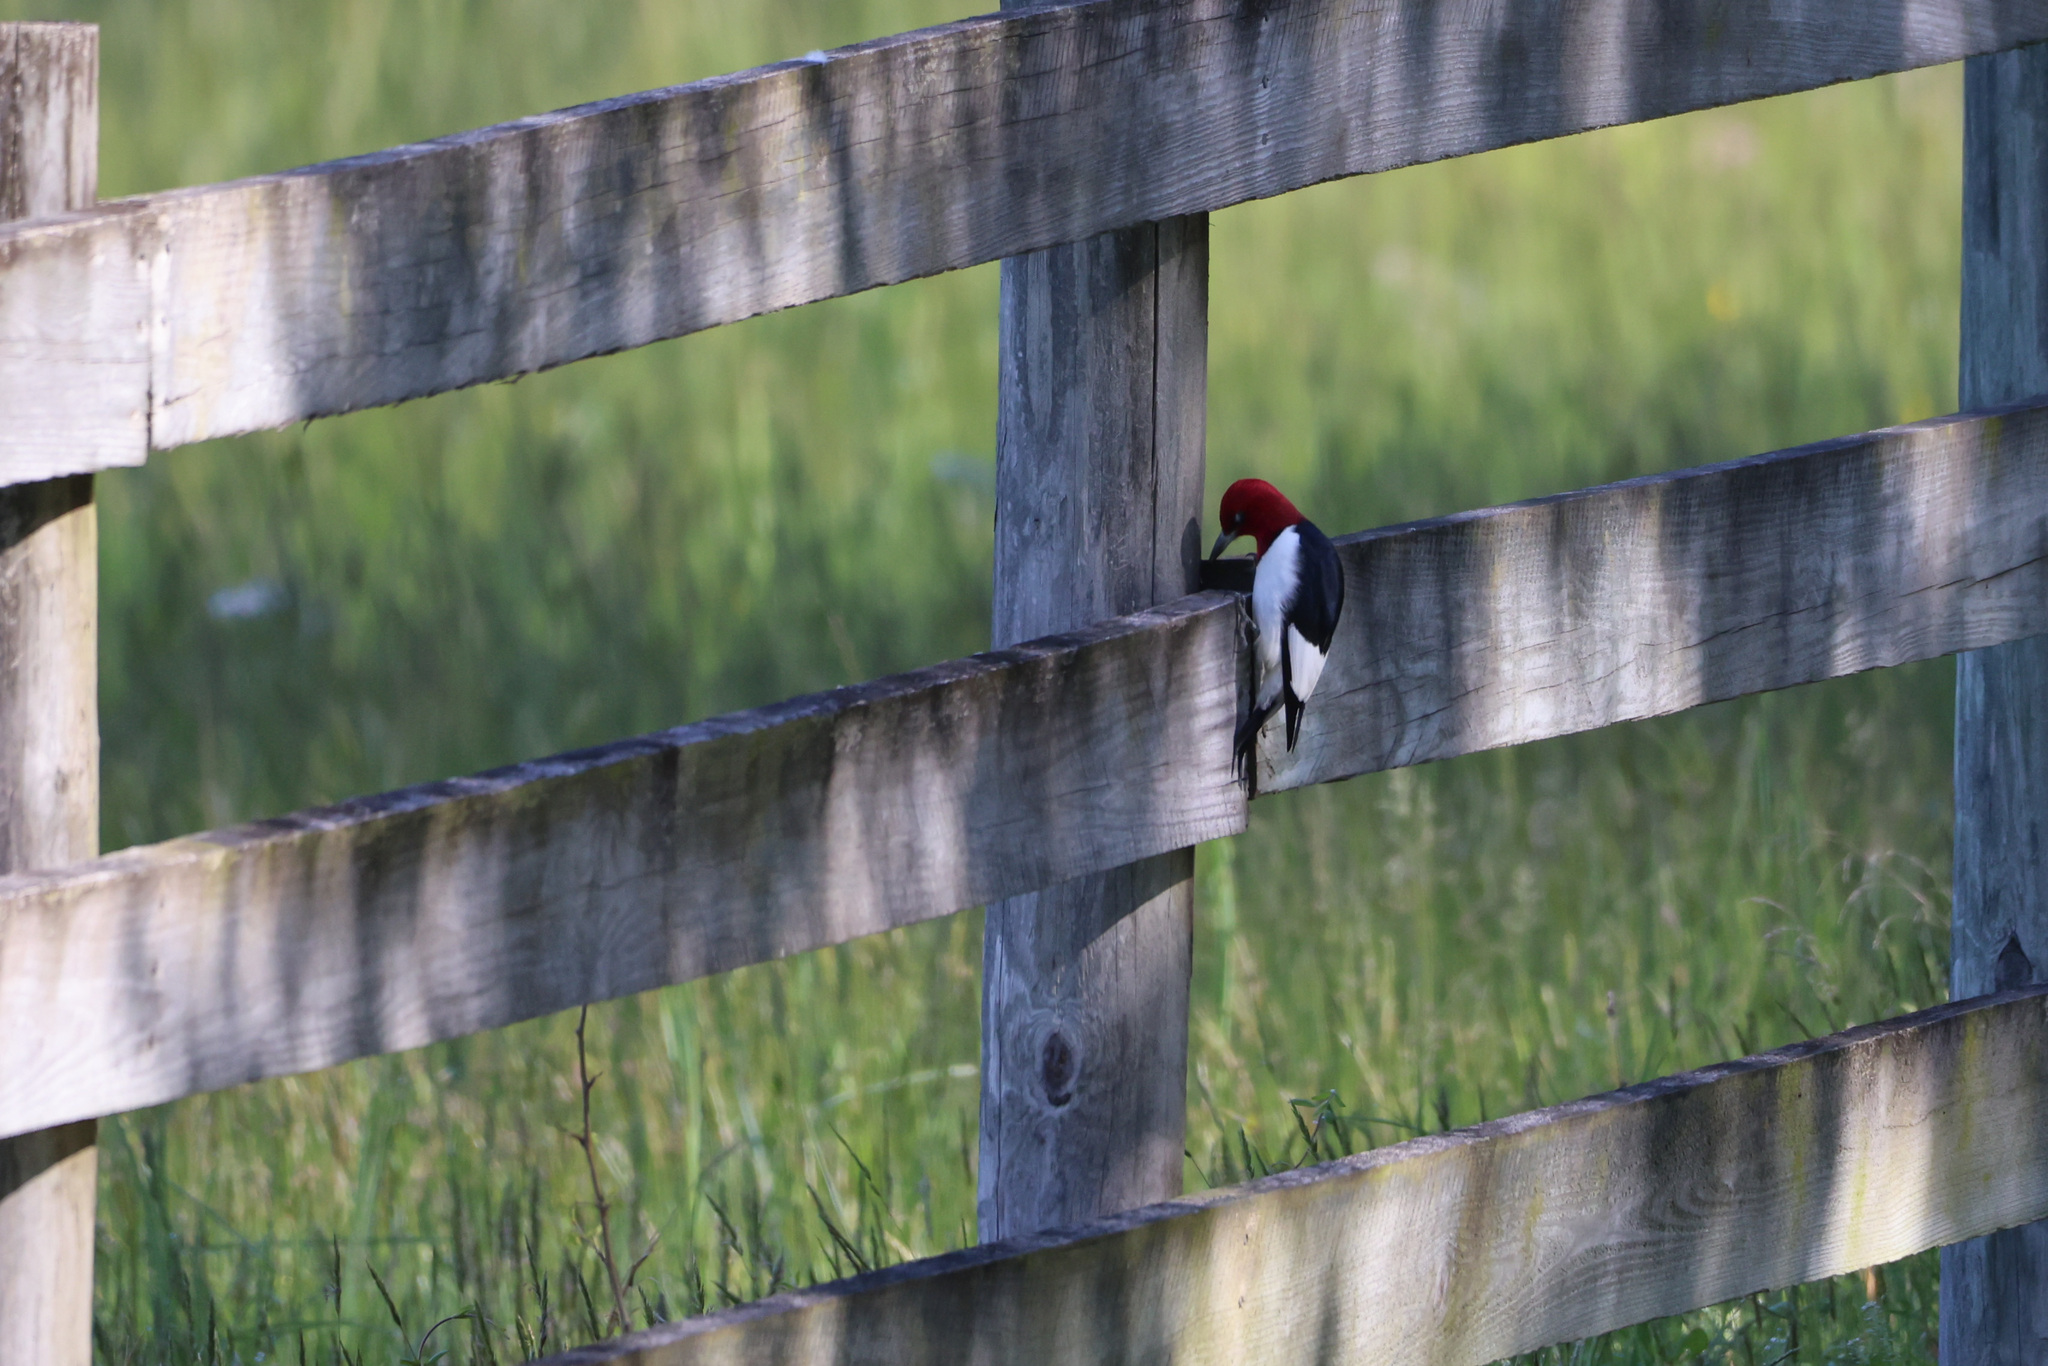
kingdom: Animalia
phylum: Chordata
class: Aves
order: Piciformes
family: Picidae
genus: Melanerpes
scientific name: Melanerpes erythrocephalus
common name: Red-headed woodpecker
